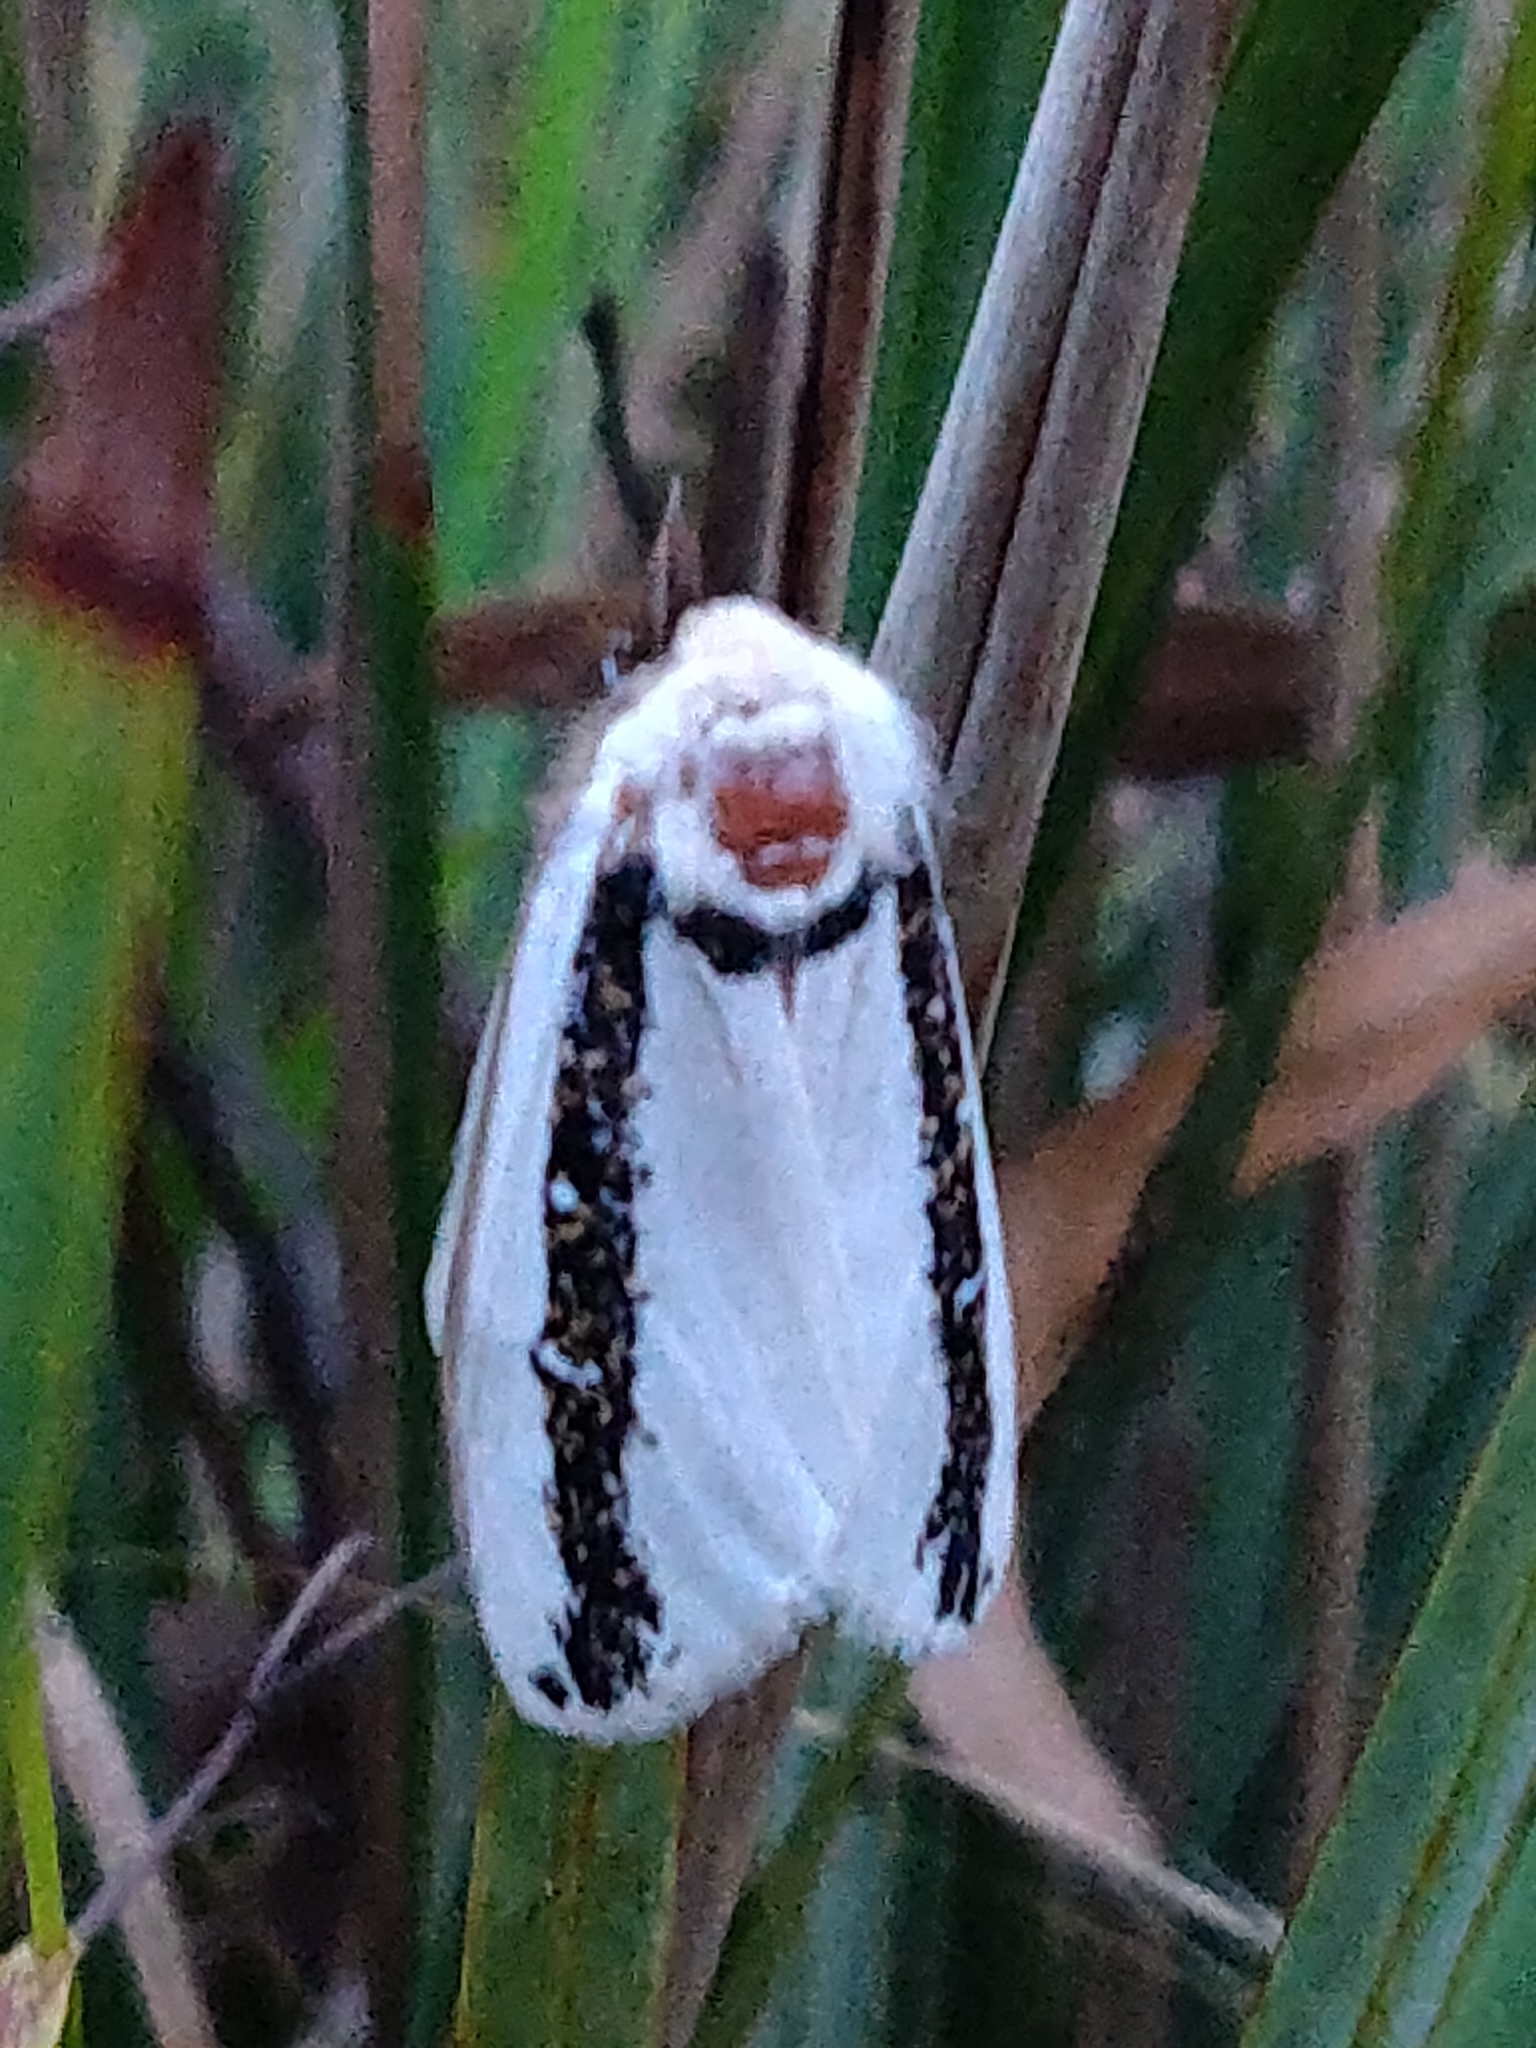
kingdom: Animalia
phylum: Arthropoda
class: Insecta
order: Lepidoptera
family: Oenosandridae
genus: Oenosandra
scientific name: Oenosandra boisduvalii
